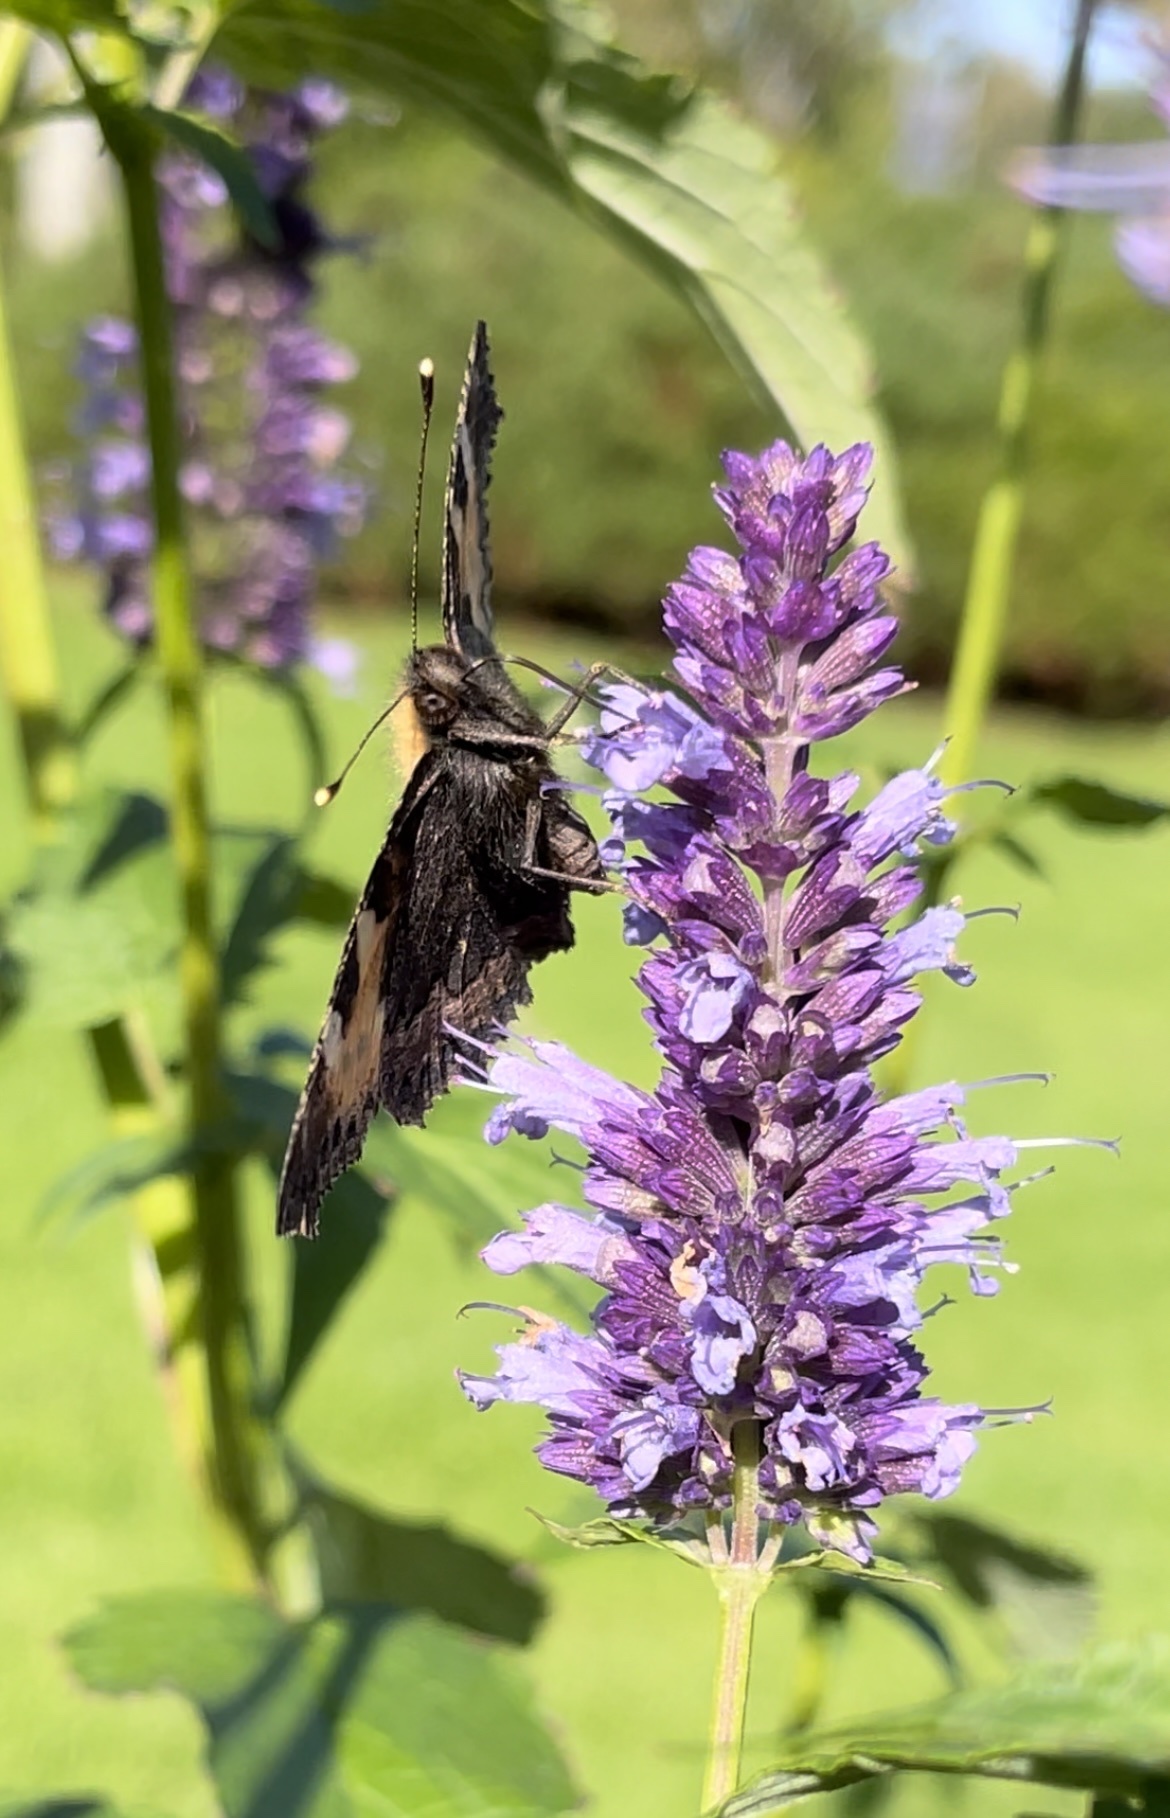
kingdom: Animalia
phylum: Arthropoda
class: Insecta
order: Lepidoptera
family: Nymphalidae
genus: Aglais
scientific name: Aglais urticae
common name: Small tortoiseshell
